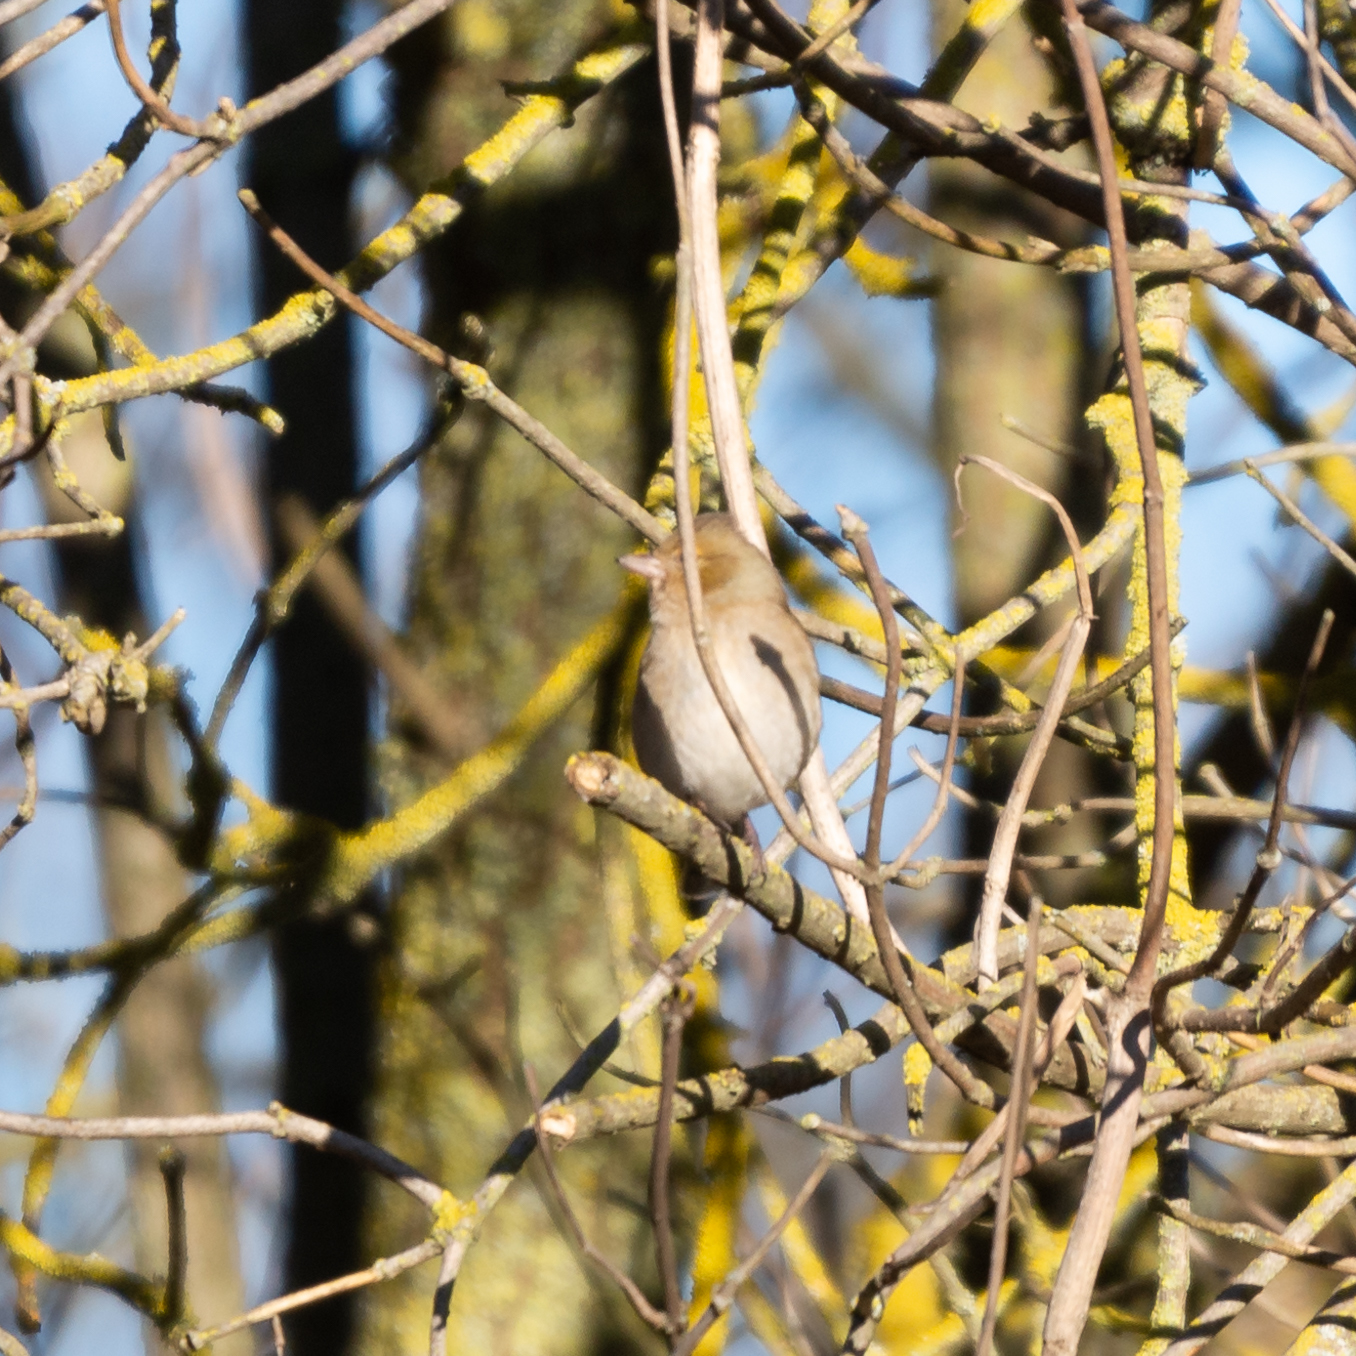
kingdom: Animalia
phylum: Chordata
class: Aves
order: Passeriformes
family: Fringillidae
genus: Fringilla
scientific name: Fringilla coelebs
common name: Common chaffinch
